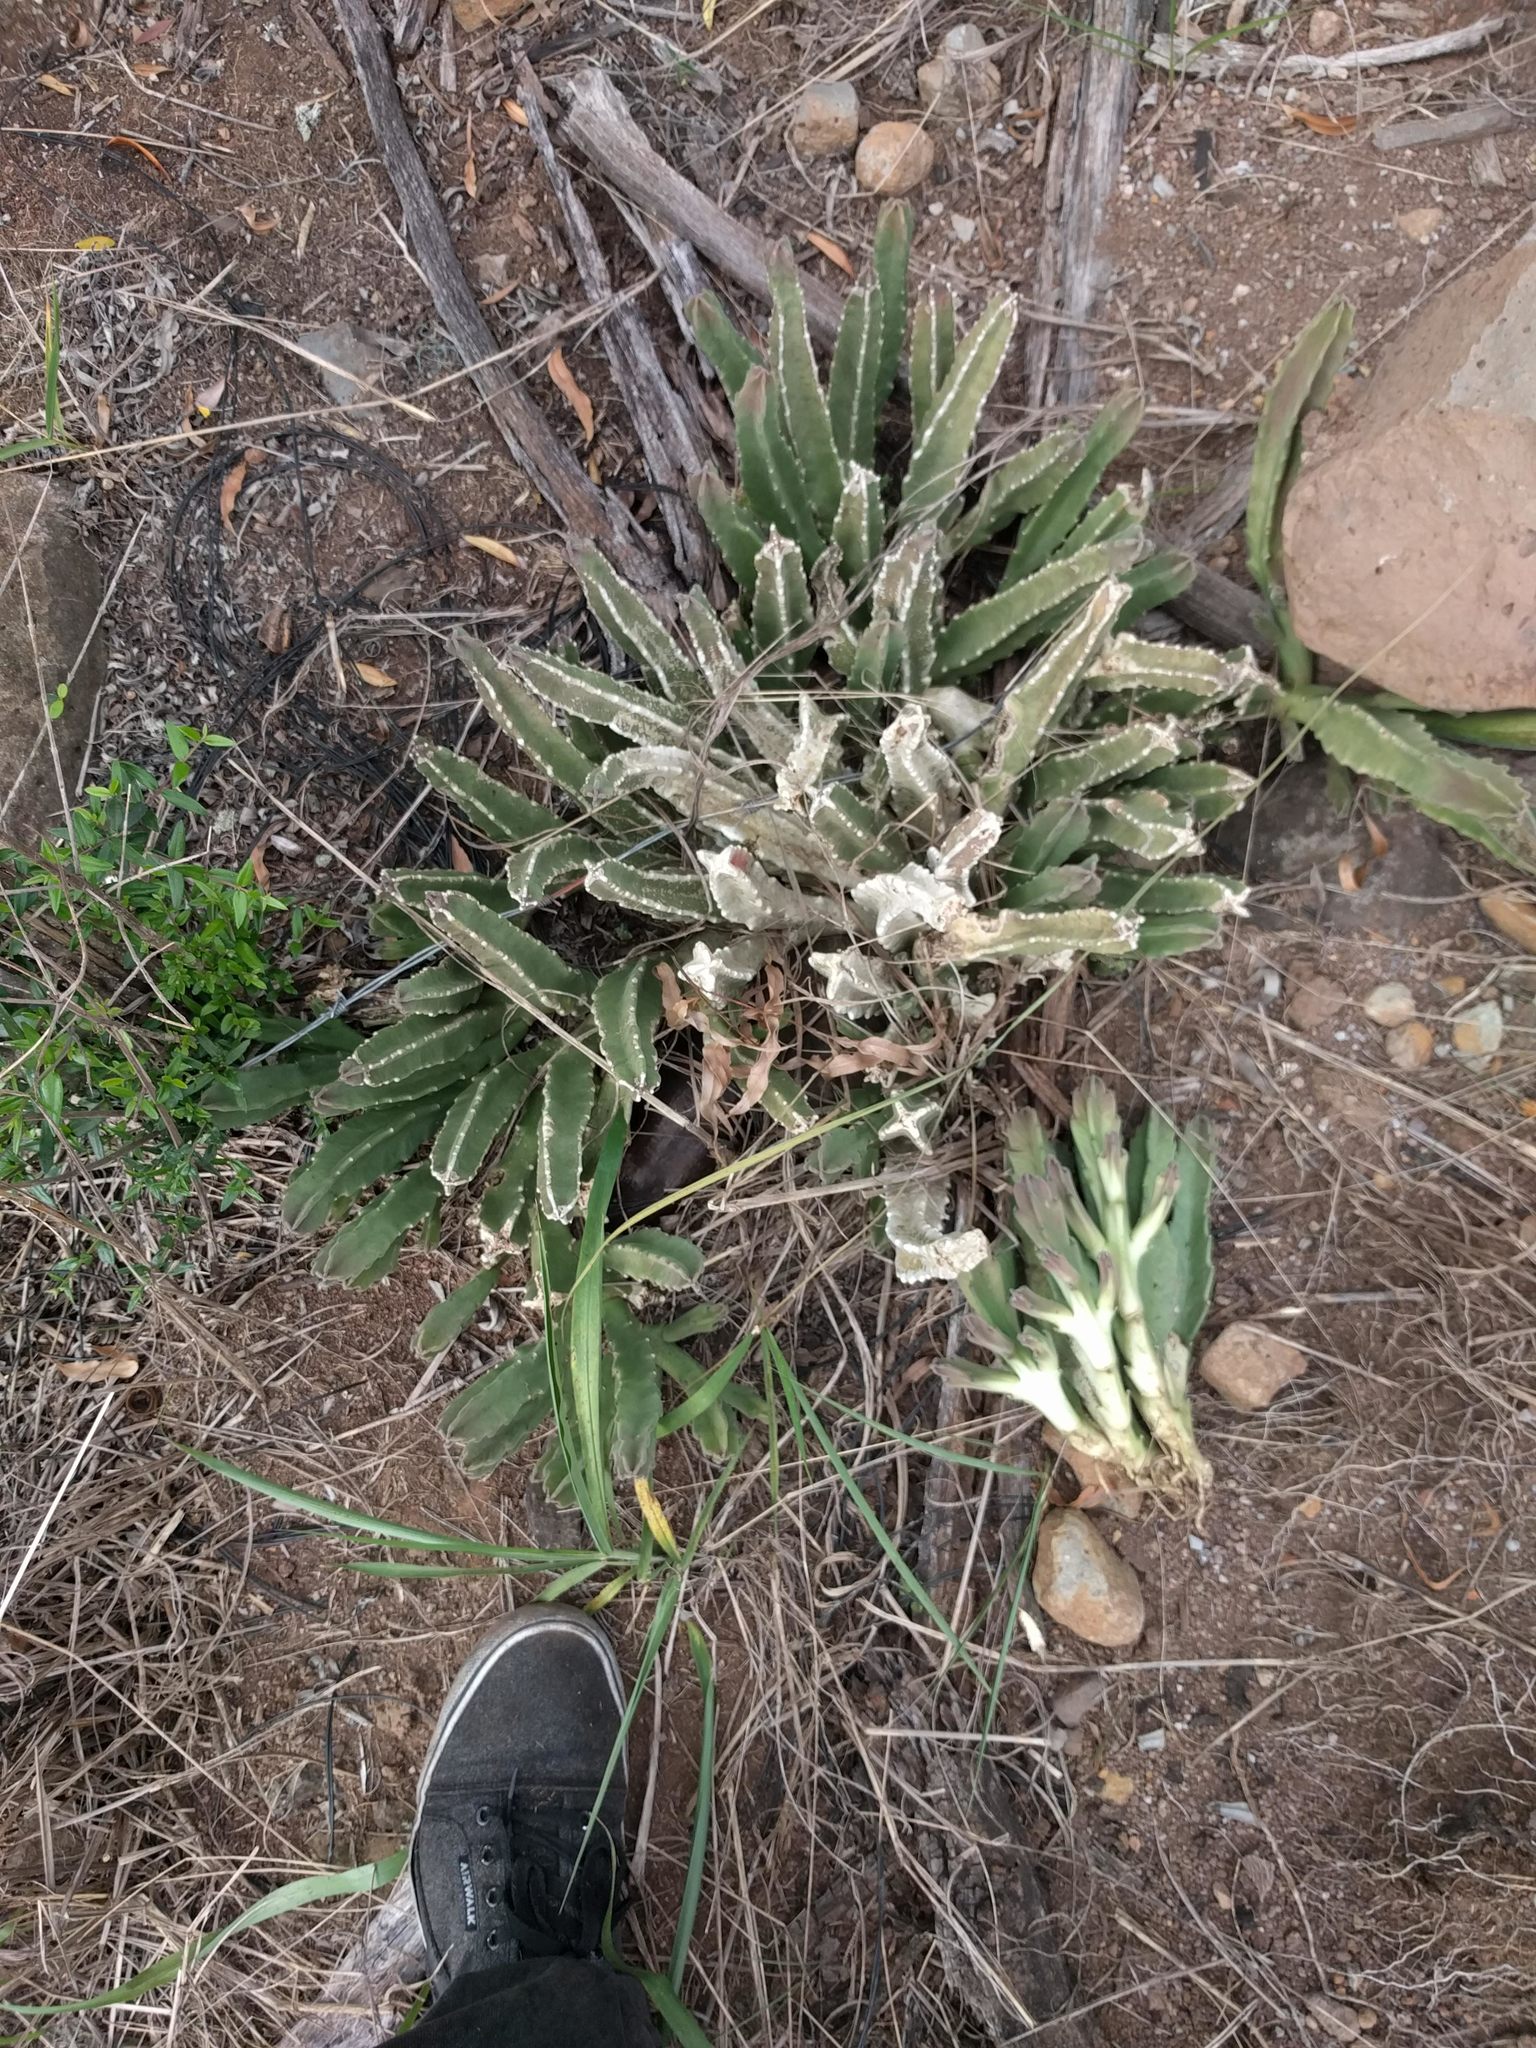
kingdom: Plantae
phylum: Tracheophyta
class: Magnoliopsida
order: Gentianales
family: Apocynaceae
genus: Ceropegia
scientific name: Ceropegia gigantea
